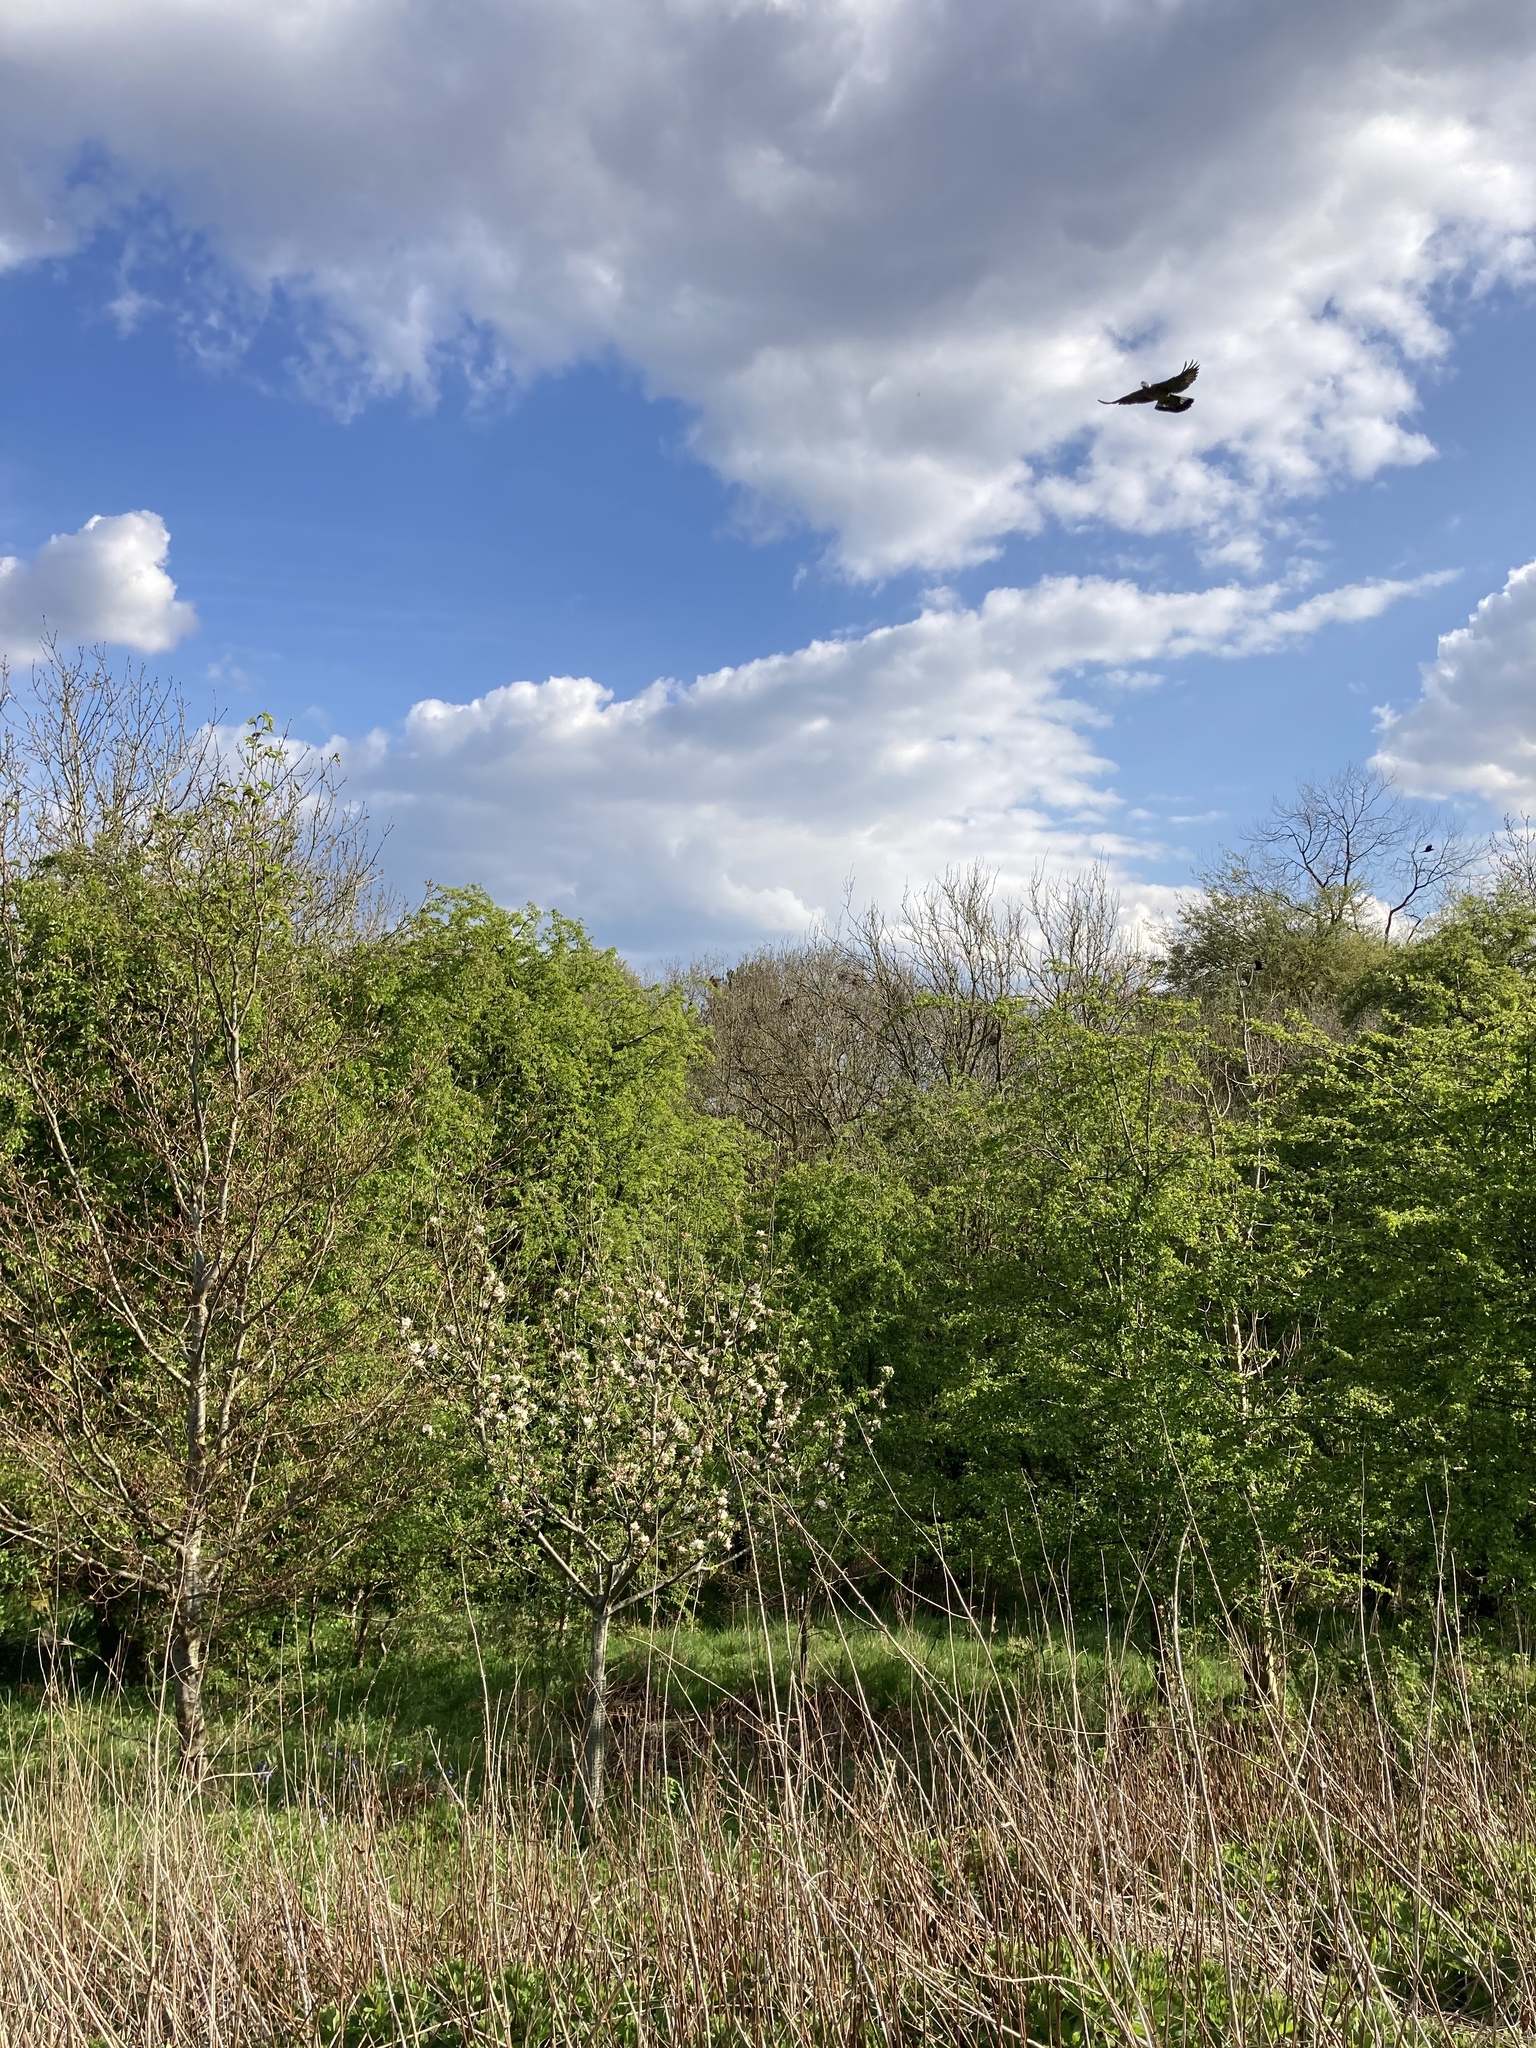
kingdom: Animalia
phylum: Chordata
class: Aves
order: Columbiformes
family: Columbidae
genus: Columba
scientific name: Columba palumbus
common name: Common wood pigeon
